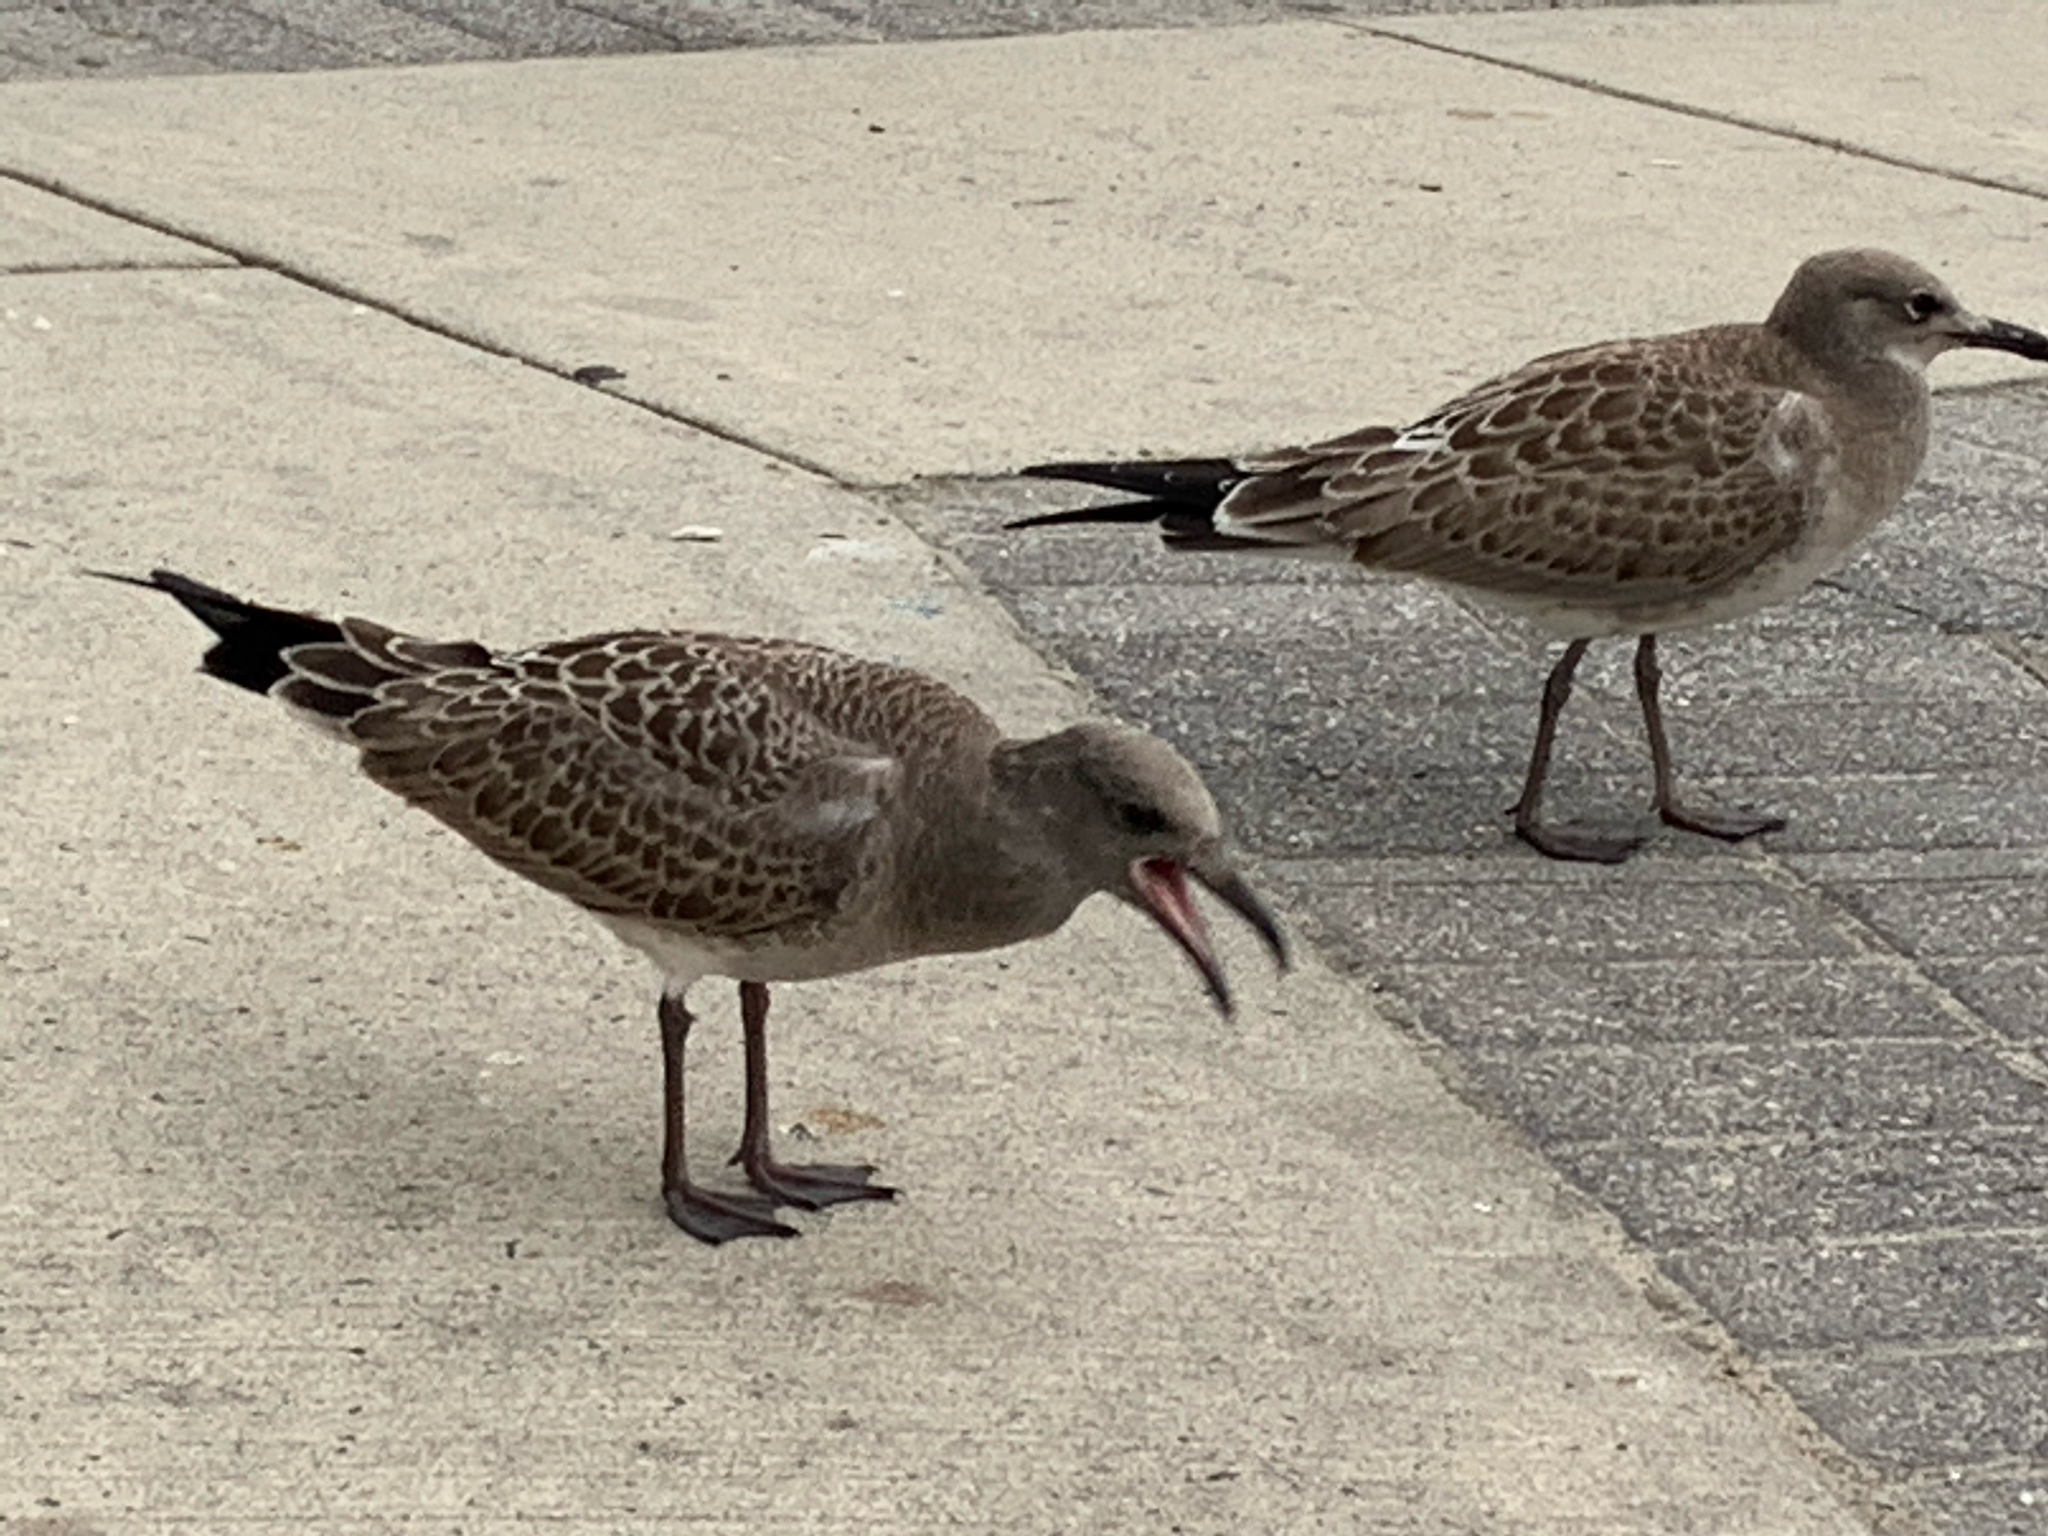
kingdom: Animalia
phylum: Chordata
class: Aves
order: Charadriiformes
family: Laridae
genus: Leucophaeus
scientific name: Leucophaeus atricilla
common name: Laughing gull
